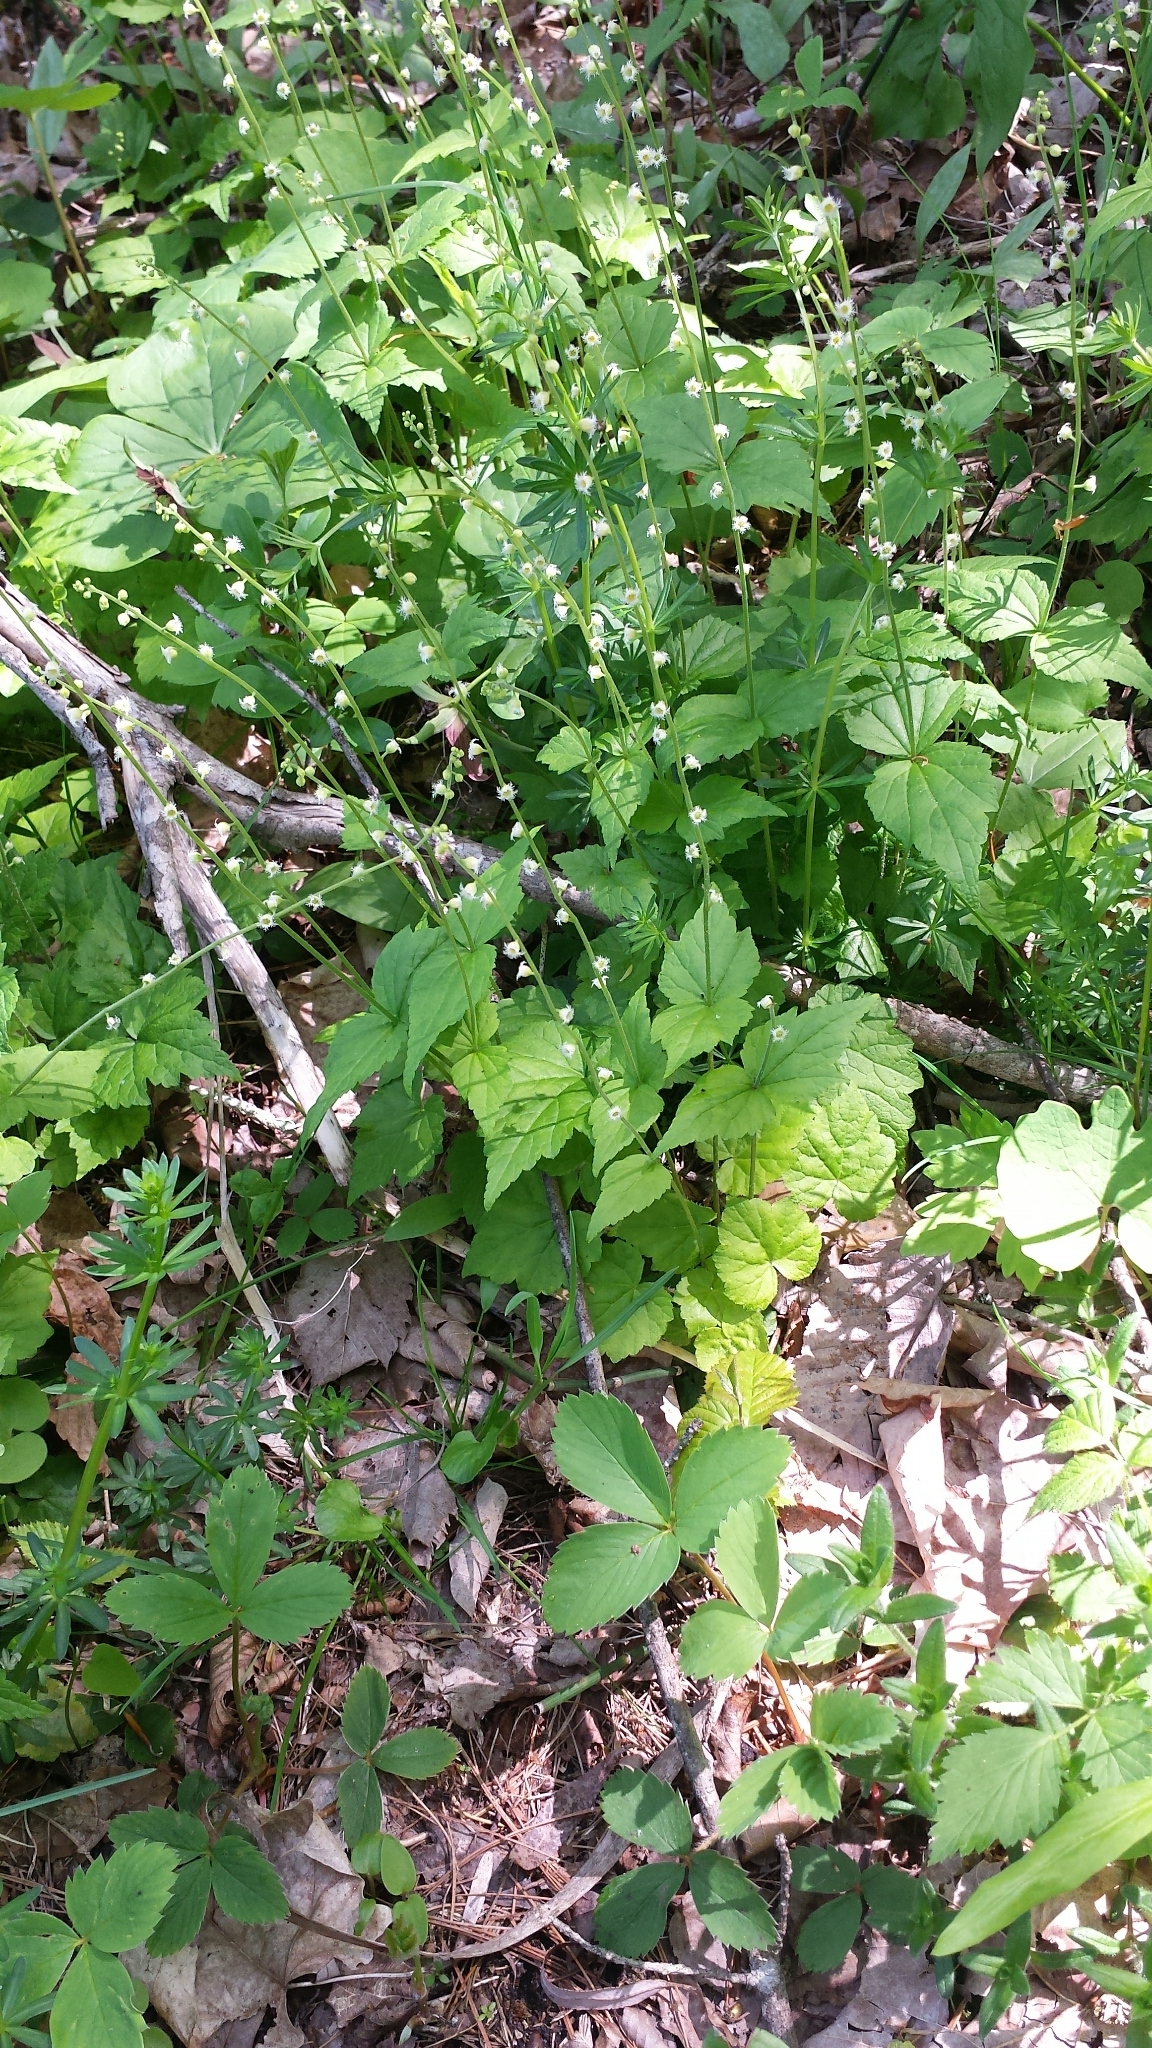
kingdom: Plantae
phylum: Tracheophyta
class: Magnoliopsida
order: Saxifragales
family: Saxifragaceae
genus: Mitella
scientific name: Mitella diphylla
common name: Coolwort
